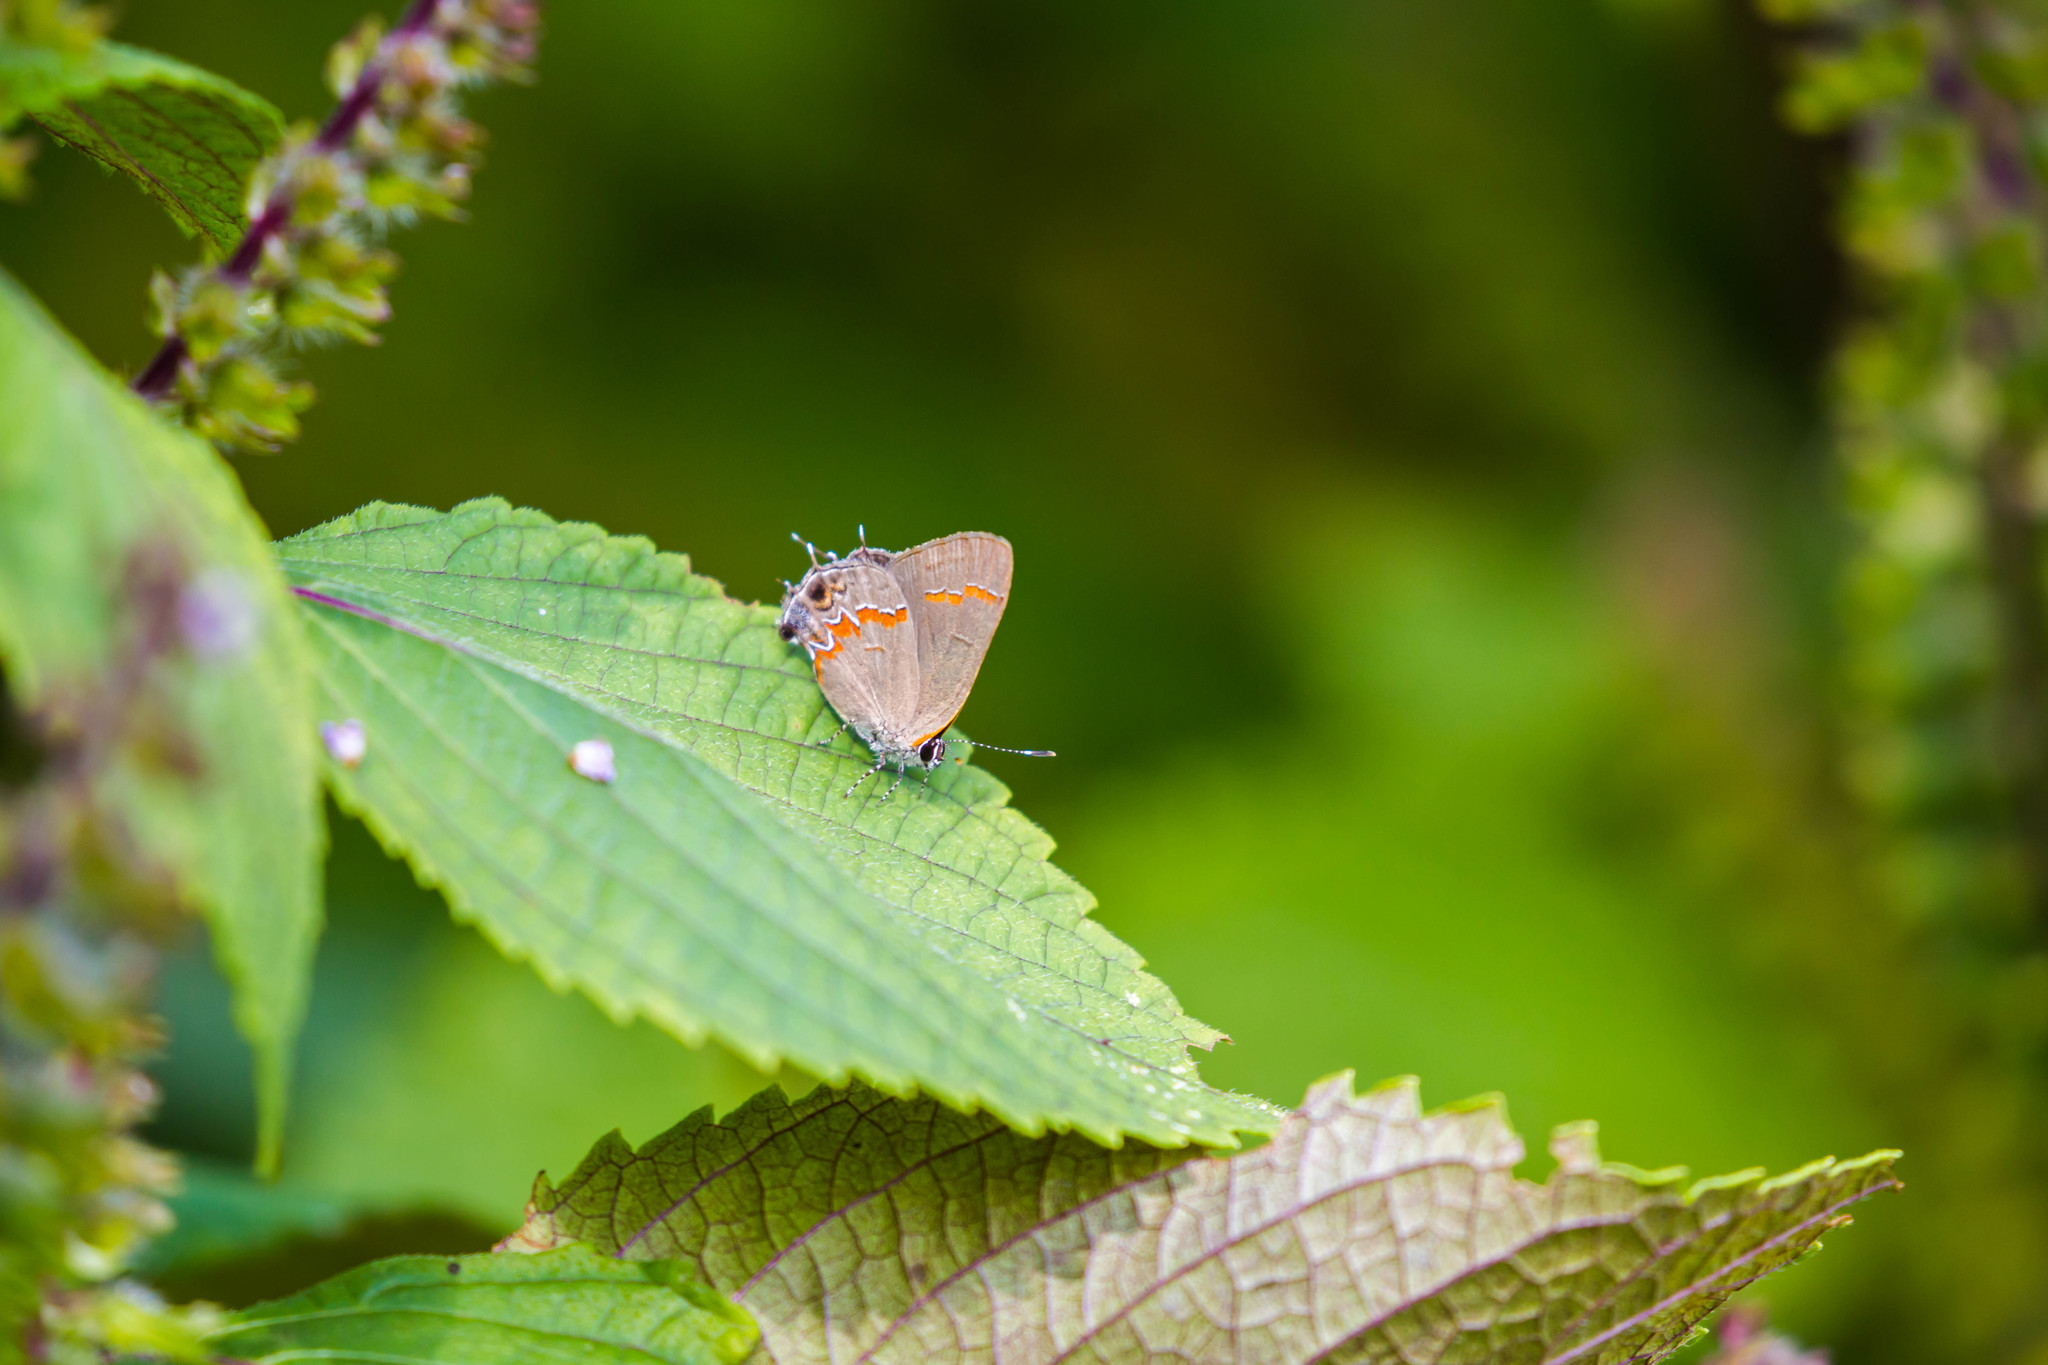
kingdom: Animalia
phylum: Arthropoda
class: Insecta
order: Lepidoptera
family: Lycaenidae
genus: Calycopis
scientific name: Calycopis cecrops
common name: Red-banded hairstreak
